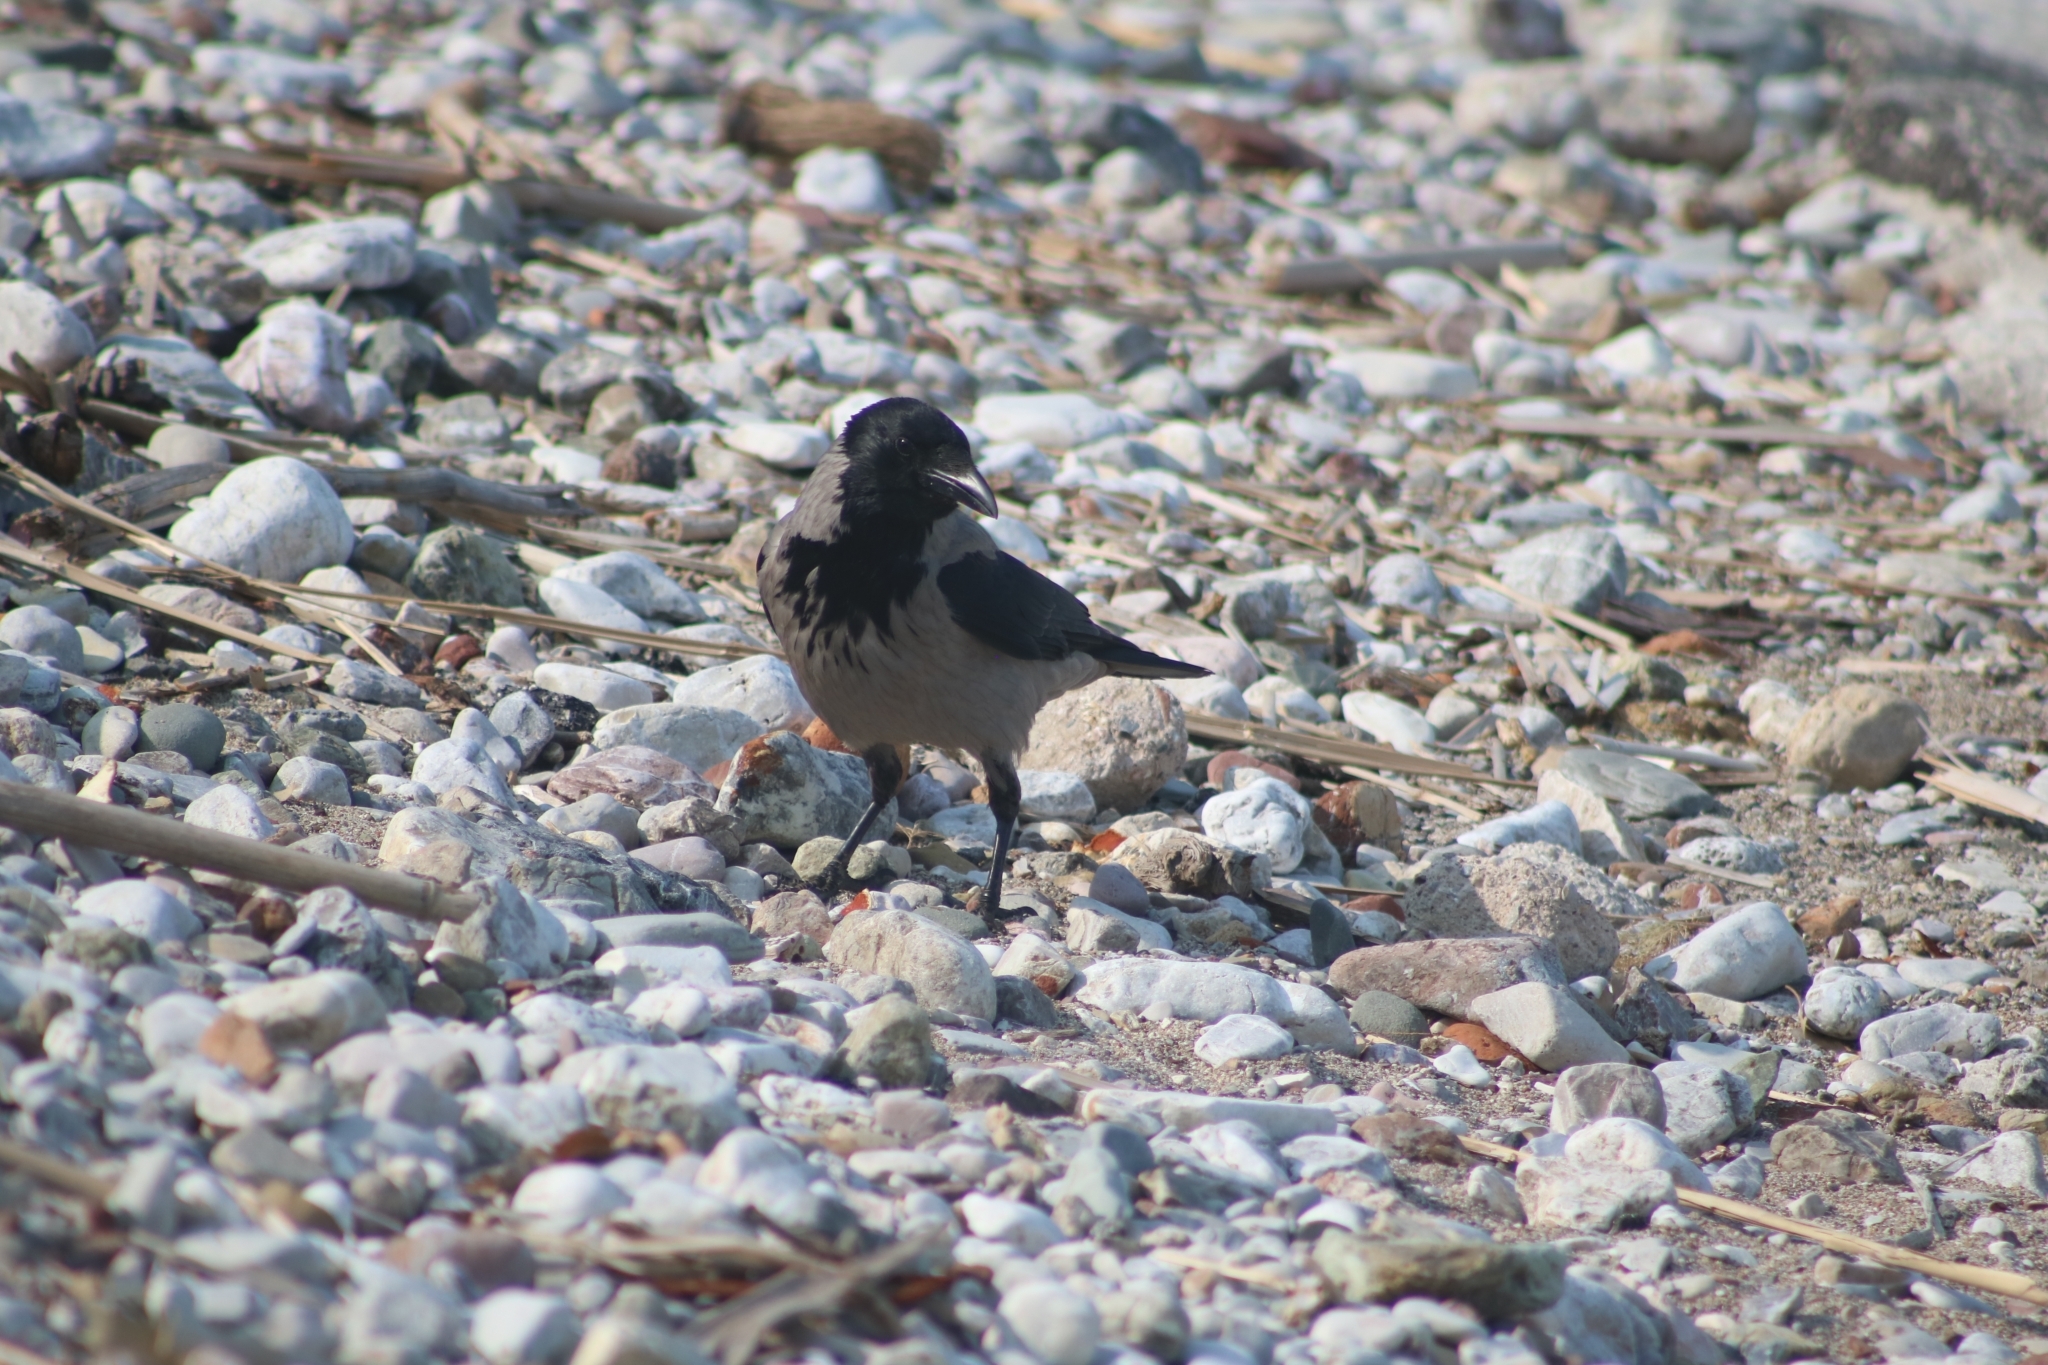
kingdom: Animalia
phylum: Chordata
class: Aves
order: Passeriformes
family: Corvidae
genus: Corvus
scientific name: Corvus cornix
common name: Hooded crow
